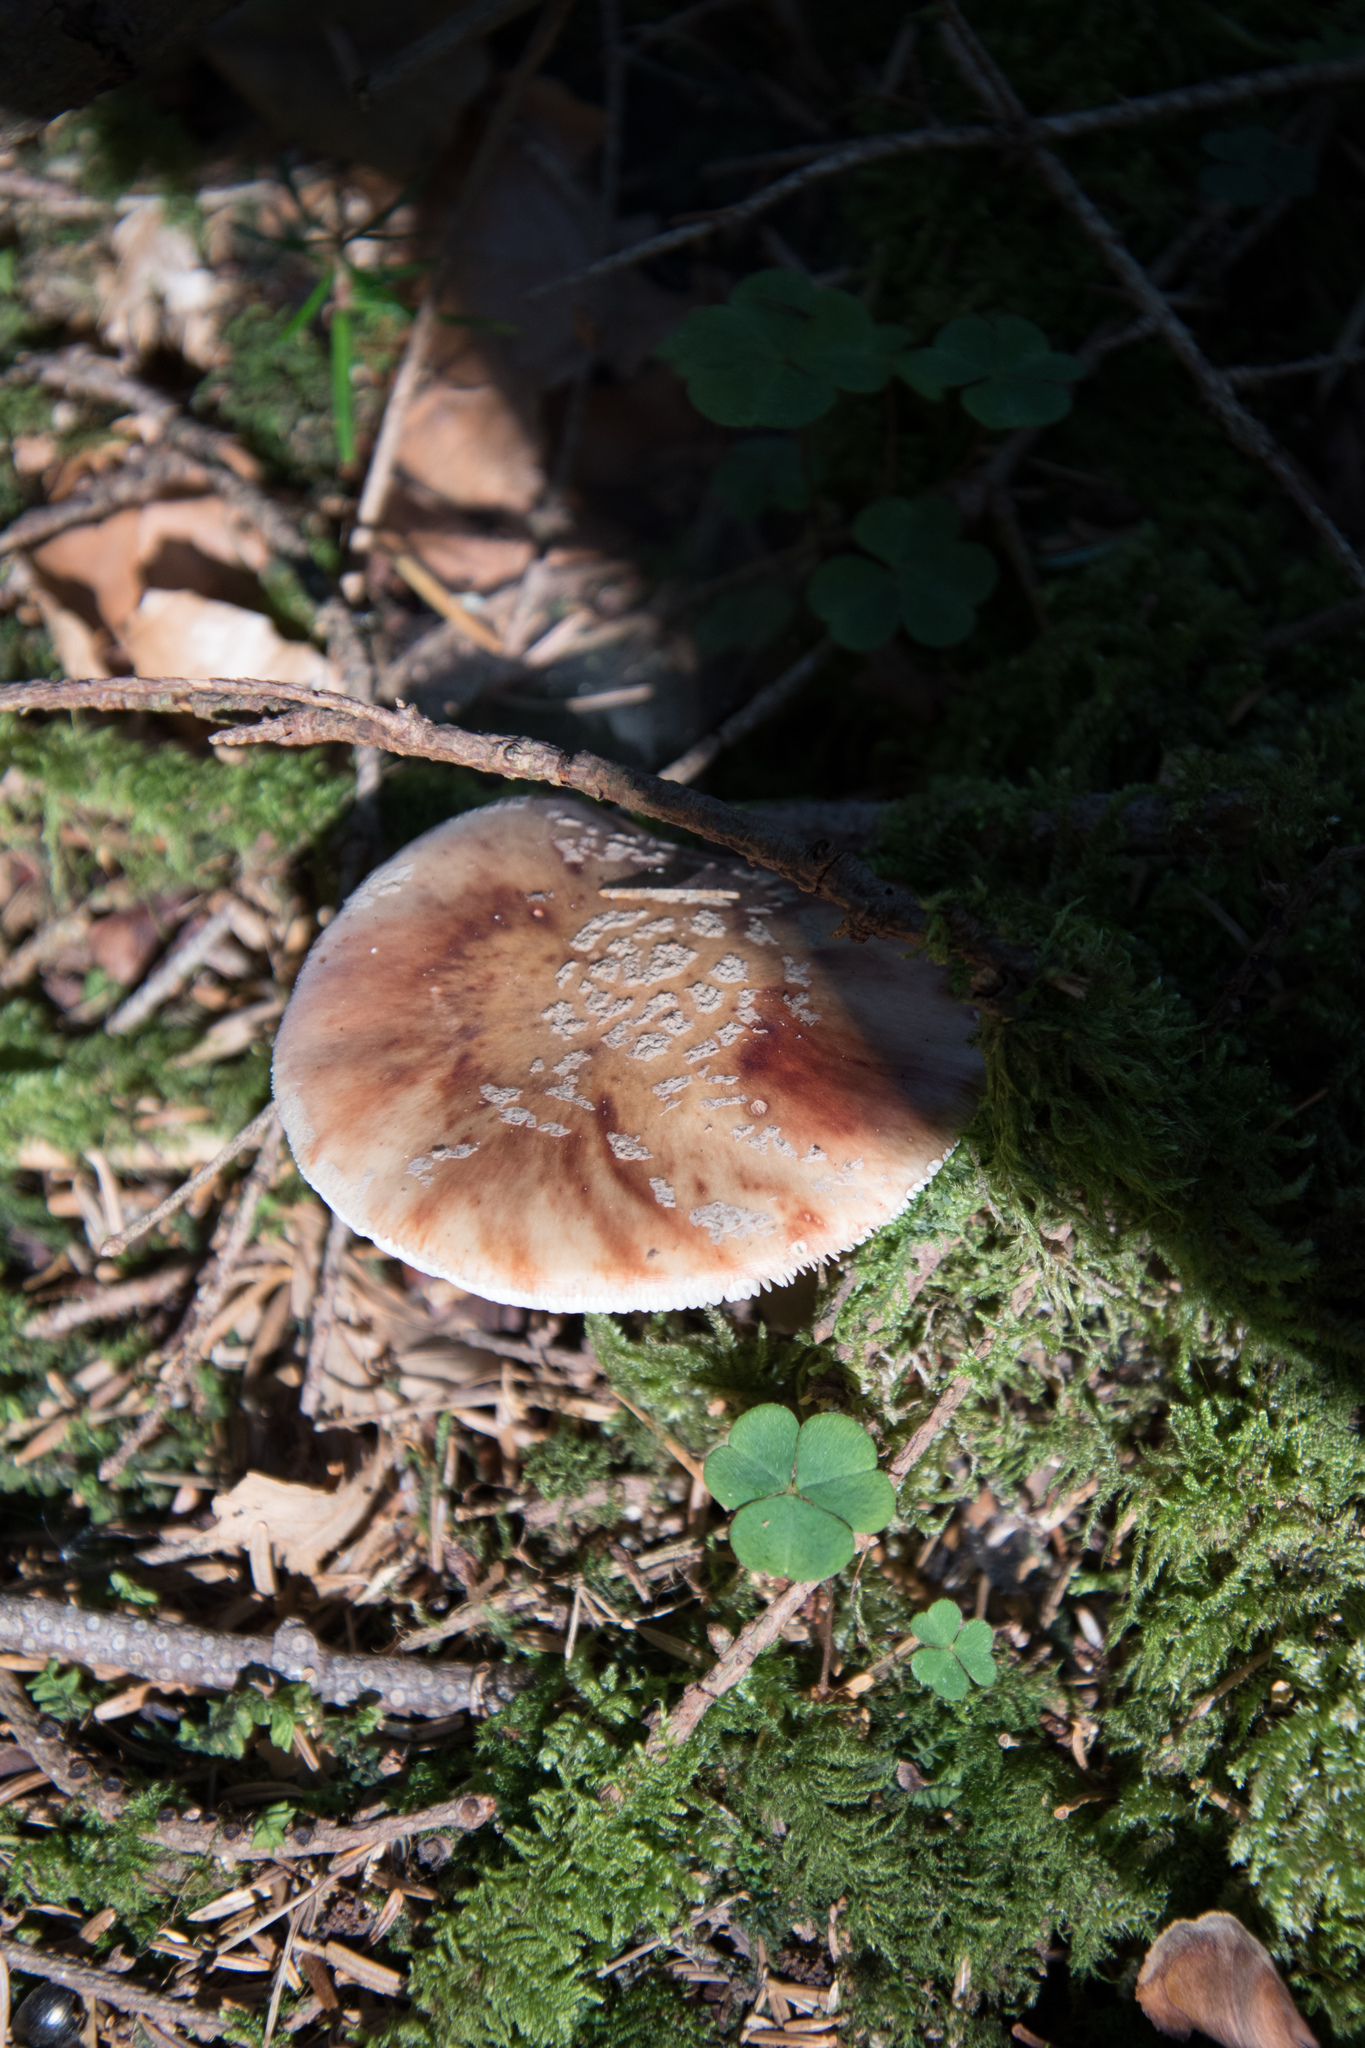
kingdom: Fungi
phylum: Basidiomycota
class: Agaricomycetes
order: Agaricales
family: Amanitaceae
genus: Amanita
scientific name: Amanita rubescens
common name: Blusher
